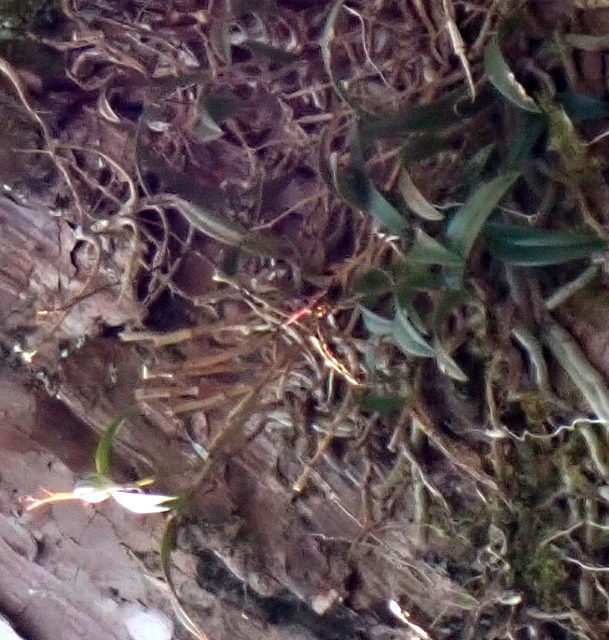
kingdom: Plantae
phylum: Tracheophyta
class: Liliopsida
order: Asparagales
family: Orchidaceae
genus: Epidendrum
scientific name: Epidendrum conopseum
